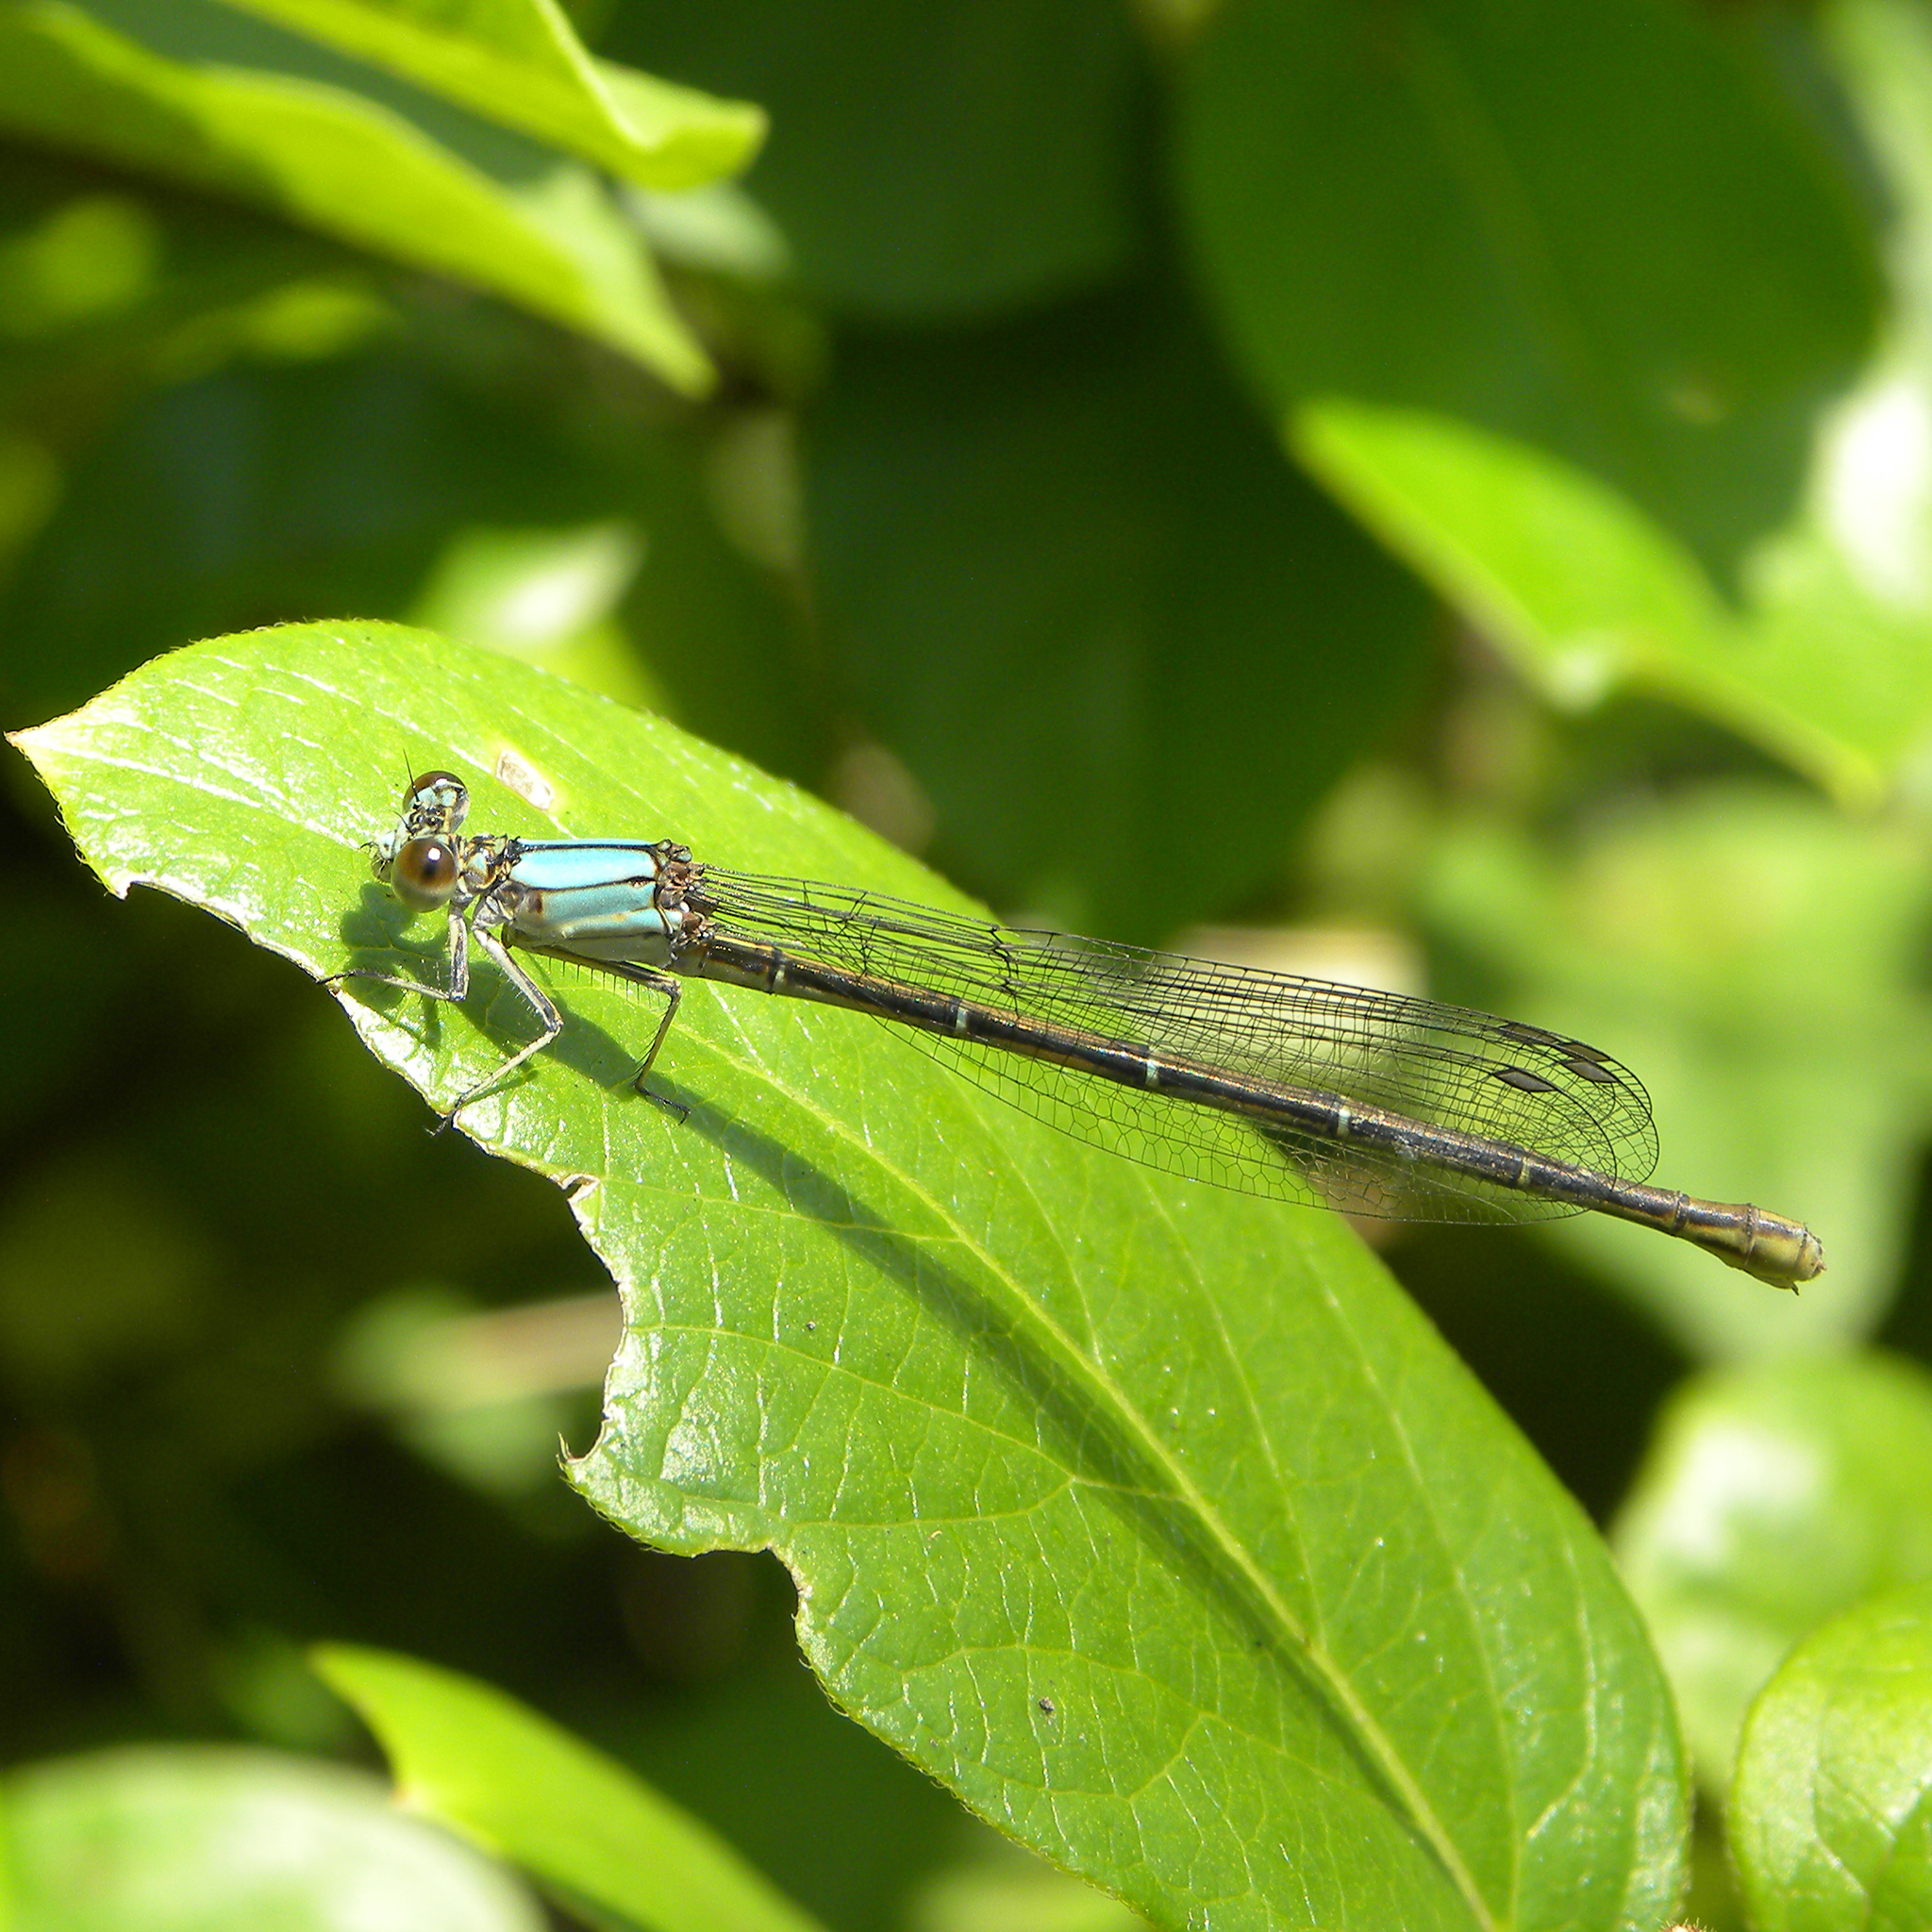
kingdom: Animalia
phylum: Arthropoda
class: Insecta
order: Odonata
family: Coenagrionidae
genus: Argia
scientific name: Argia moesta
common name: Powdered dancer
